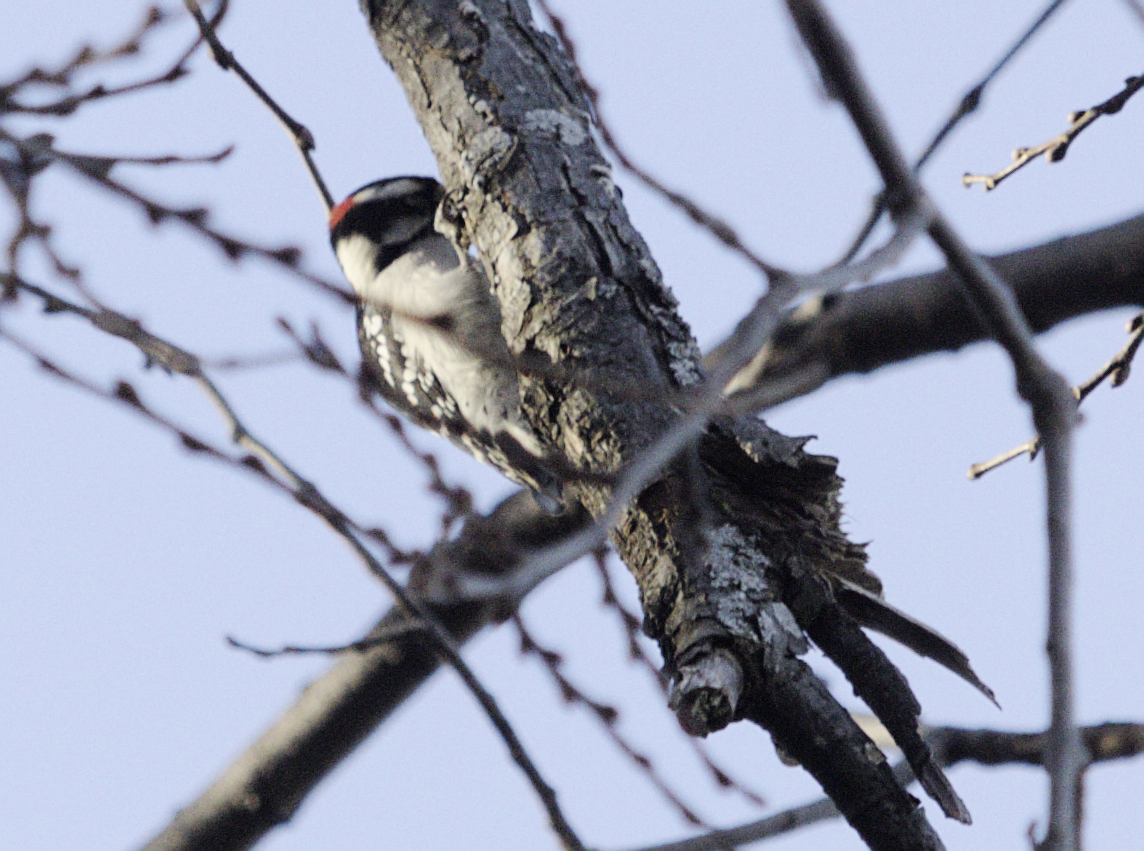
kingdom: Animalia
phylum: Chordata
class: Aves
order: Piciformes
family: Picidae
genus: Dryobates
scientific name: Dryobates pubescens
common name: Downy woodpecker
